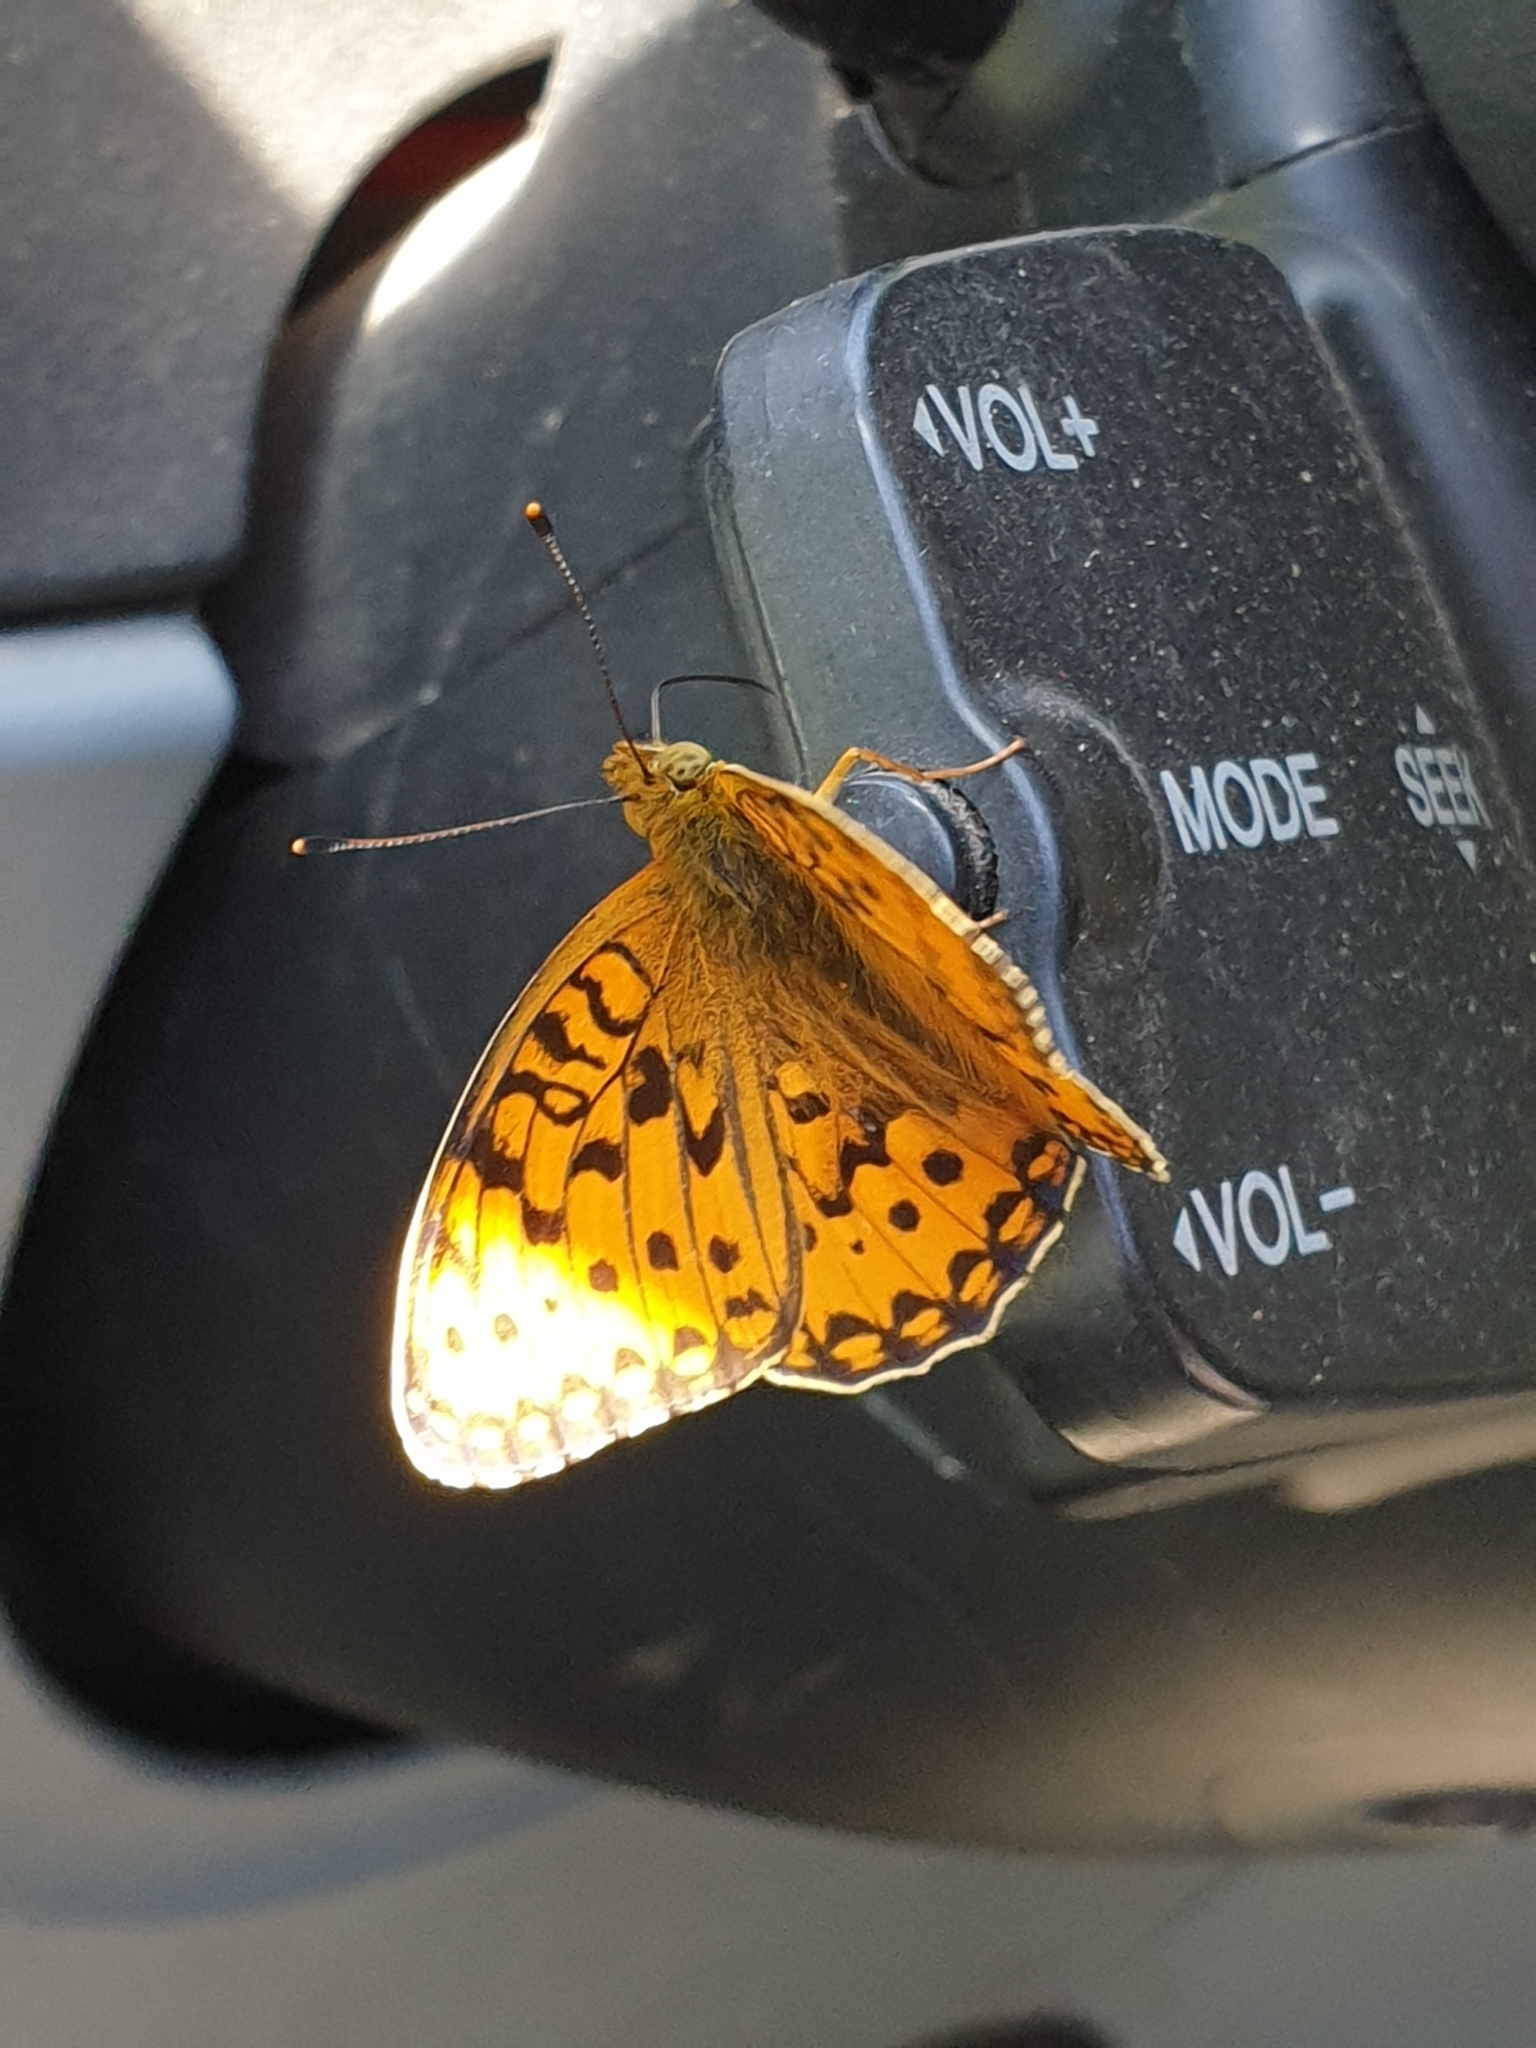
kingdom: Animalia
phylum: Arthropoda
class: Insecta
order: Lepidoptera
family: Nymphalidae
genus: Speyeria
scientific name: Speyeria aglaja
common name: Dark green fritillary
